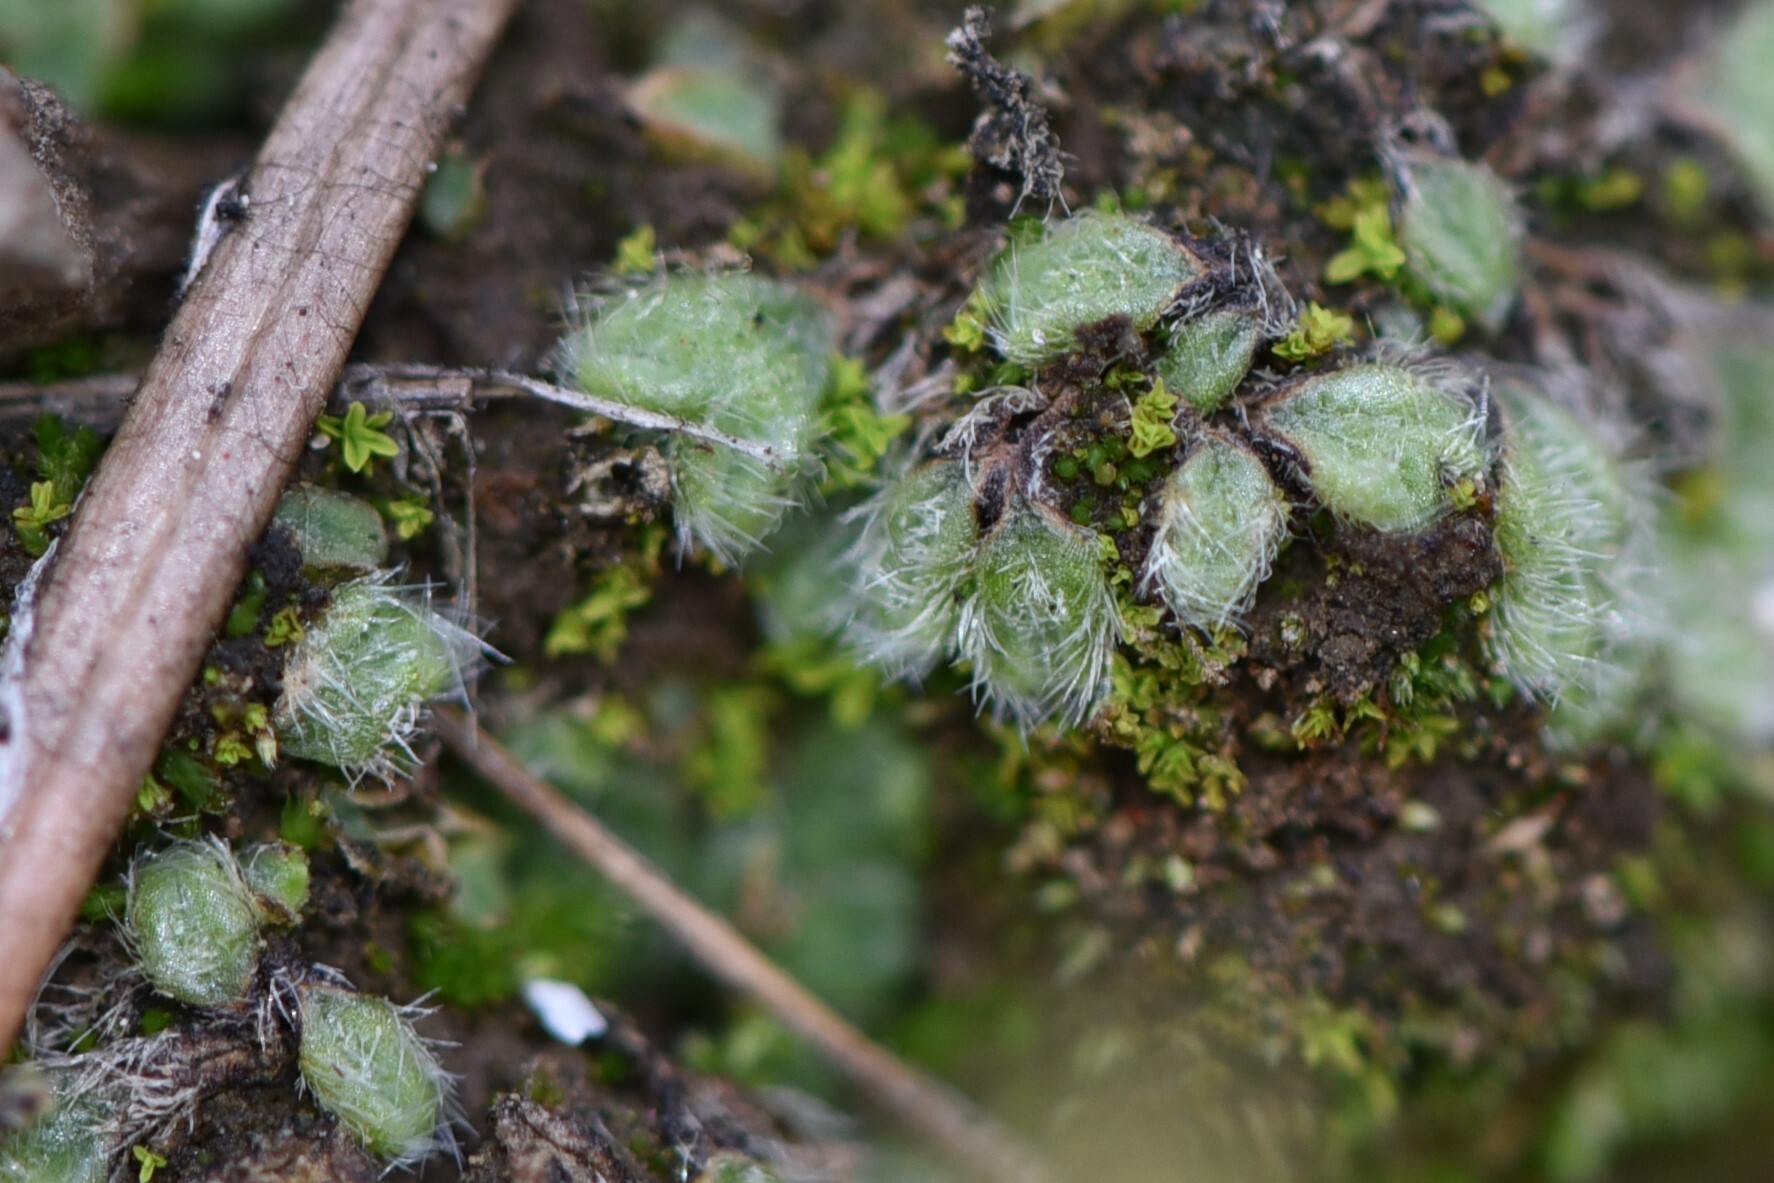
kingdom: Plantae
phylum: Marchantiophyta
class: Marchantiopsida
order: Marchantiales
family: Ricciaceae
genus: Riccia
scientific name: Riccia trichocarpa
